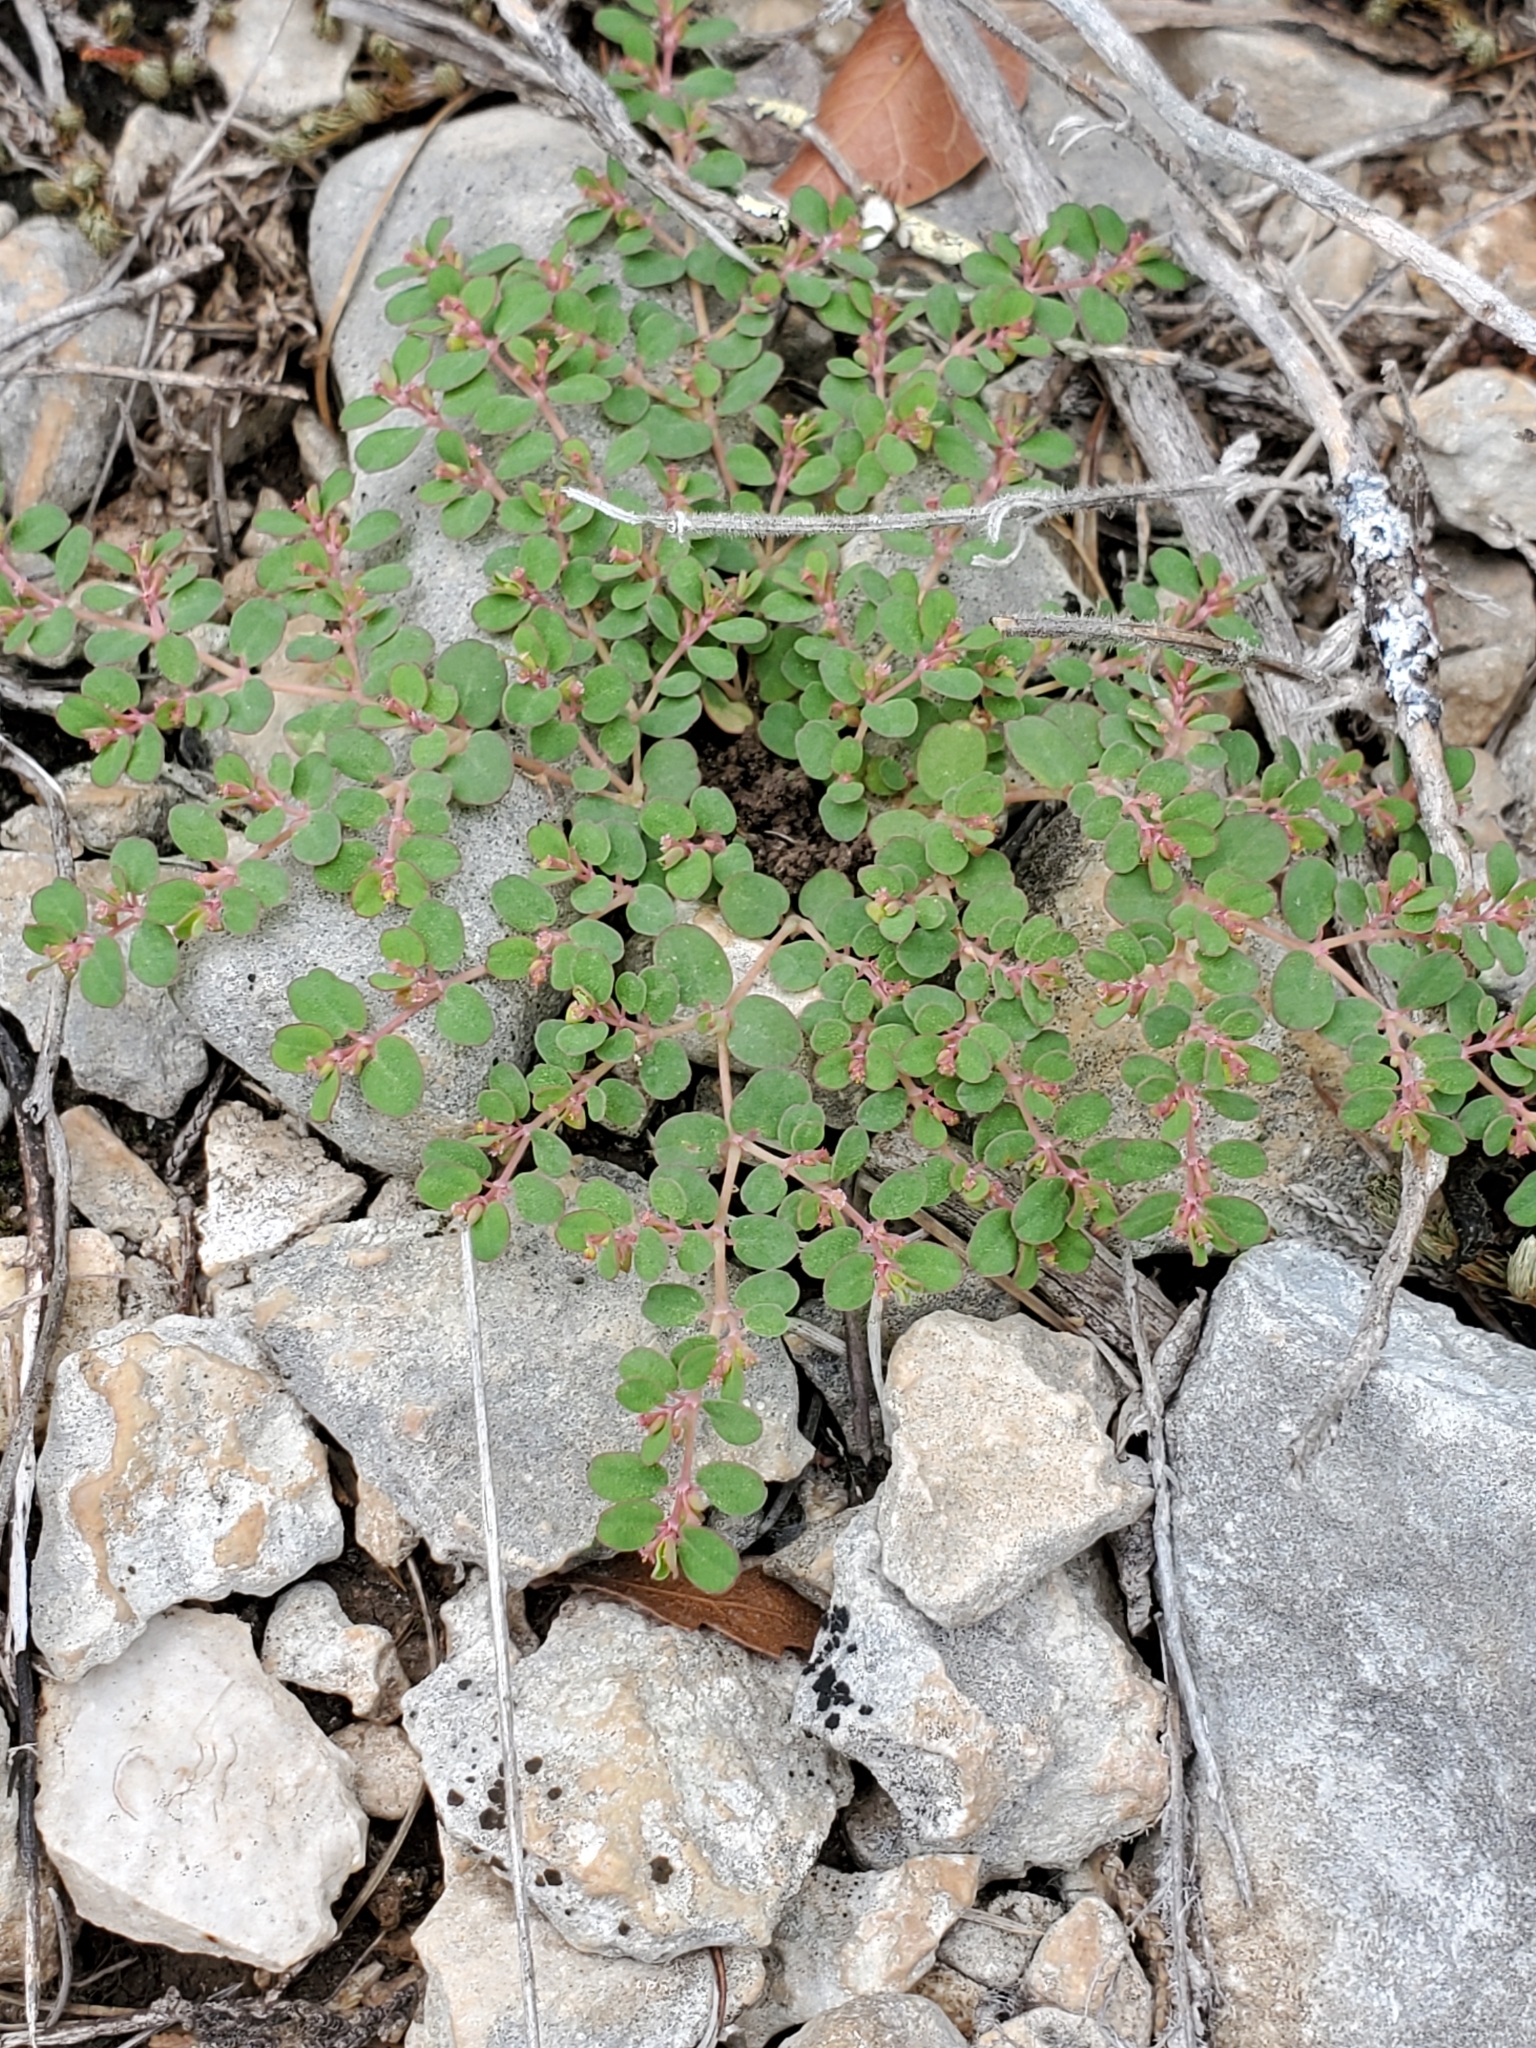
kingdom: Plantae
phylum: Tracheophyta
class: Magnoliopsida
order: Malpighiales
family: Euphorbiaceae
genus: Euphorbia
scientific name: Euphorbia serpens
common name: Matted sandmat
